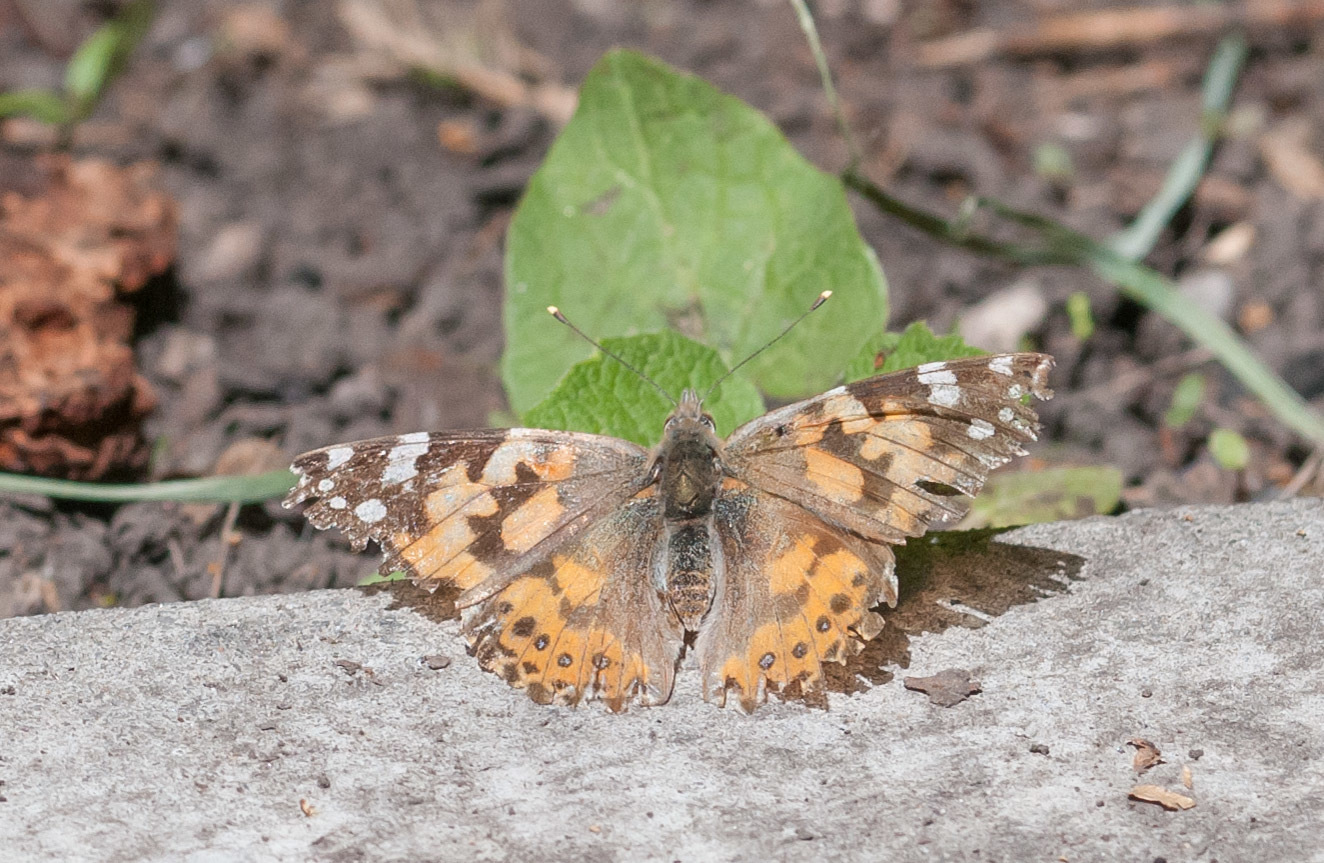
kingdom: Animalia
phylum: Arthropoda
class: Insecta
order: Lepidoptera
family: Nymphalidae
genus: Vanessa
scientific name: Vanessa cardui
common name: Painted lady
